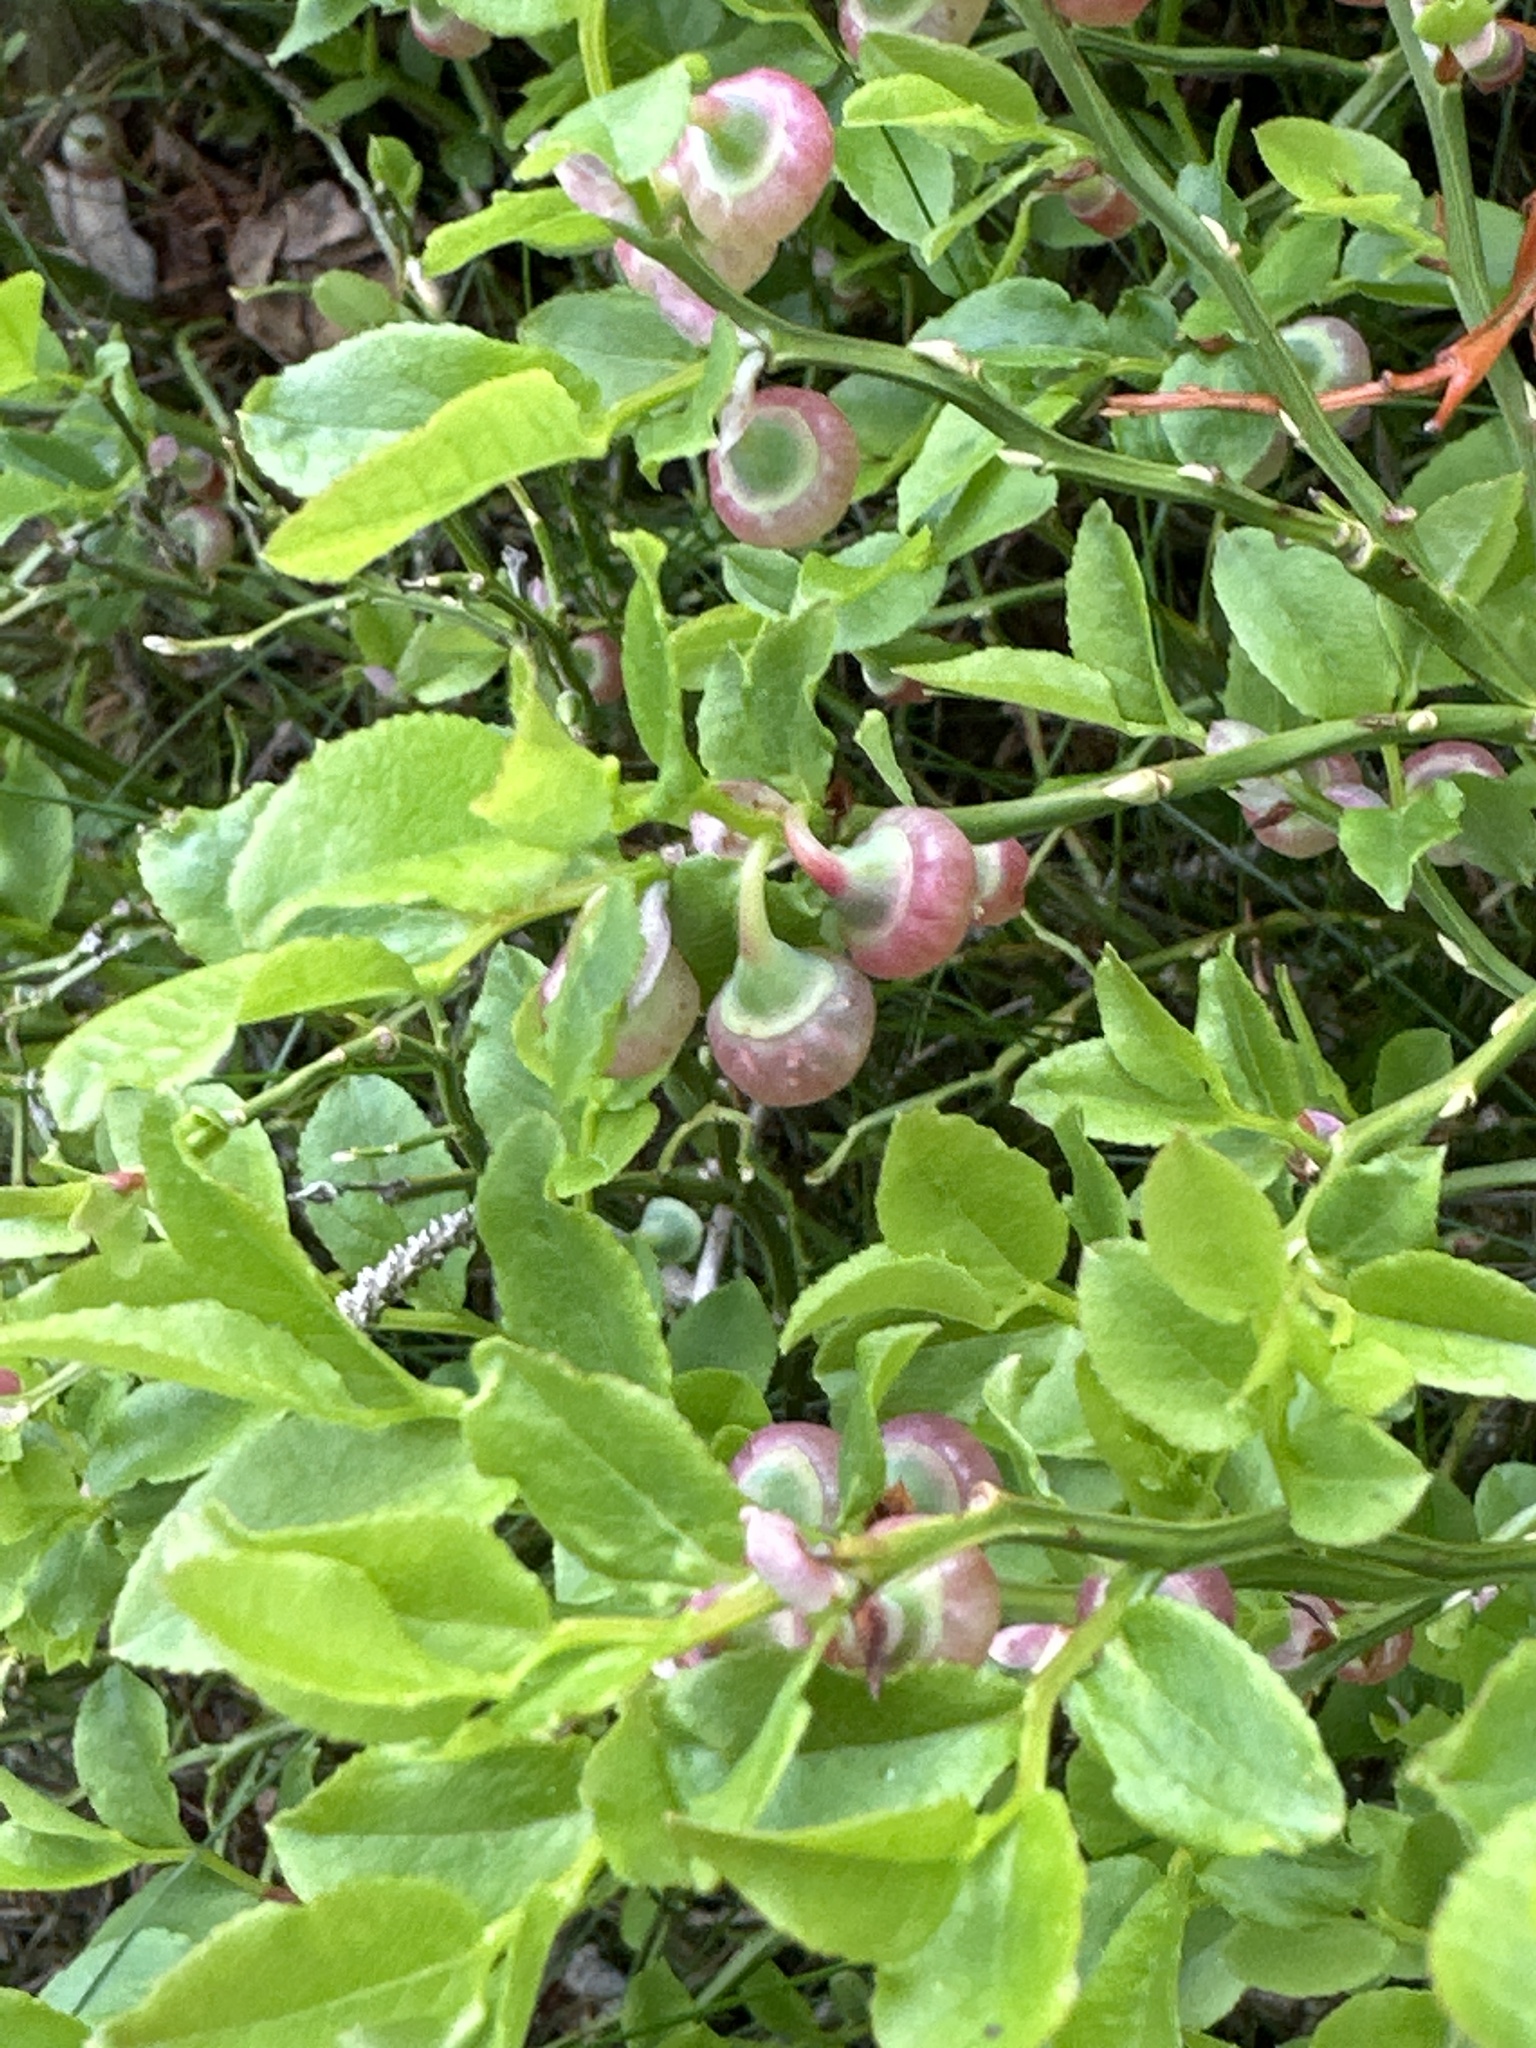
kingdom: Plantae
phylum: Tracheophyta
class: Magnoliopsida
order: Ericales
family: Ericaceae
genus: Vaccinium
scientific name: Vaccinium myrtillus
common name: Bilberry
